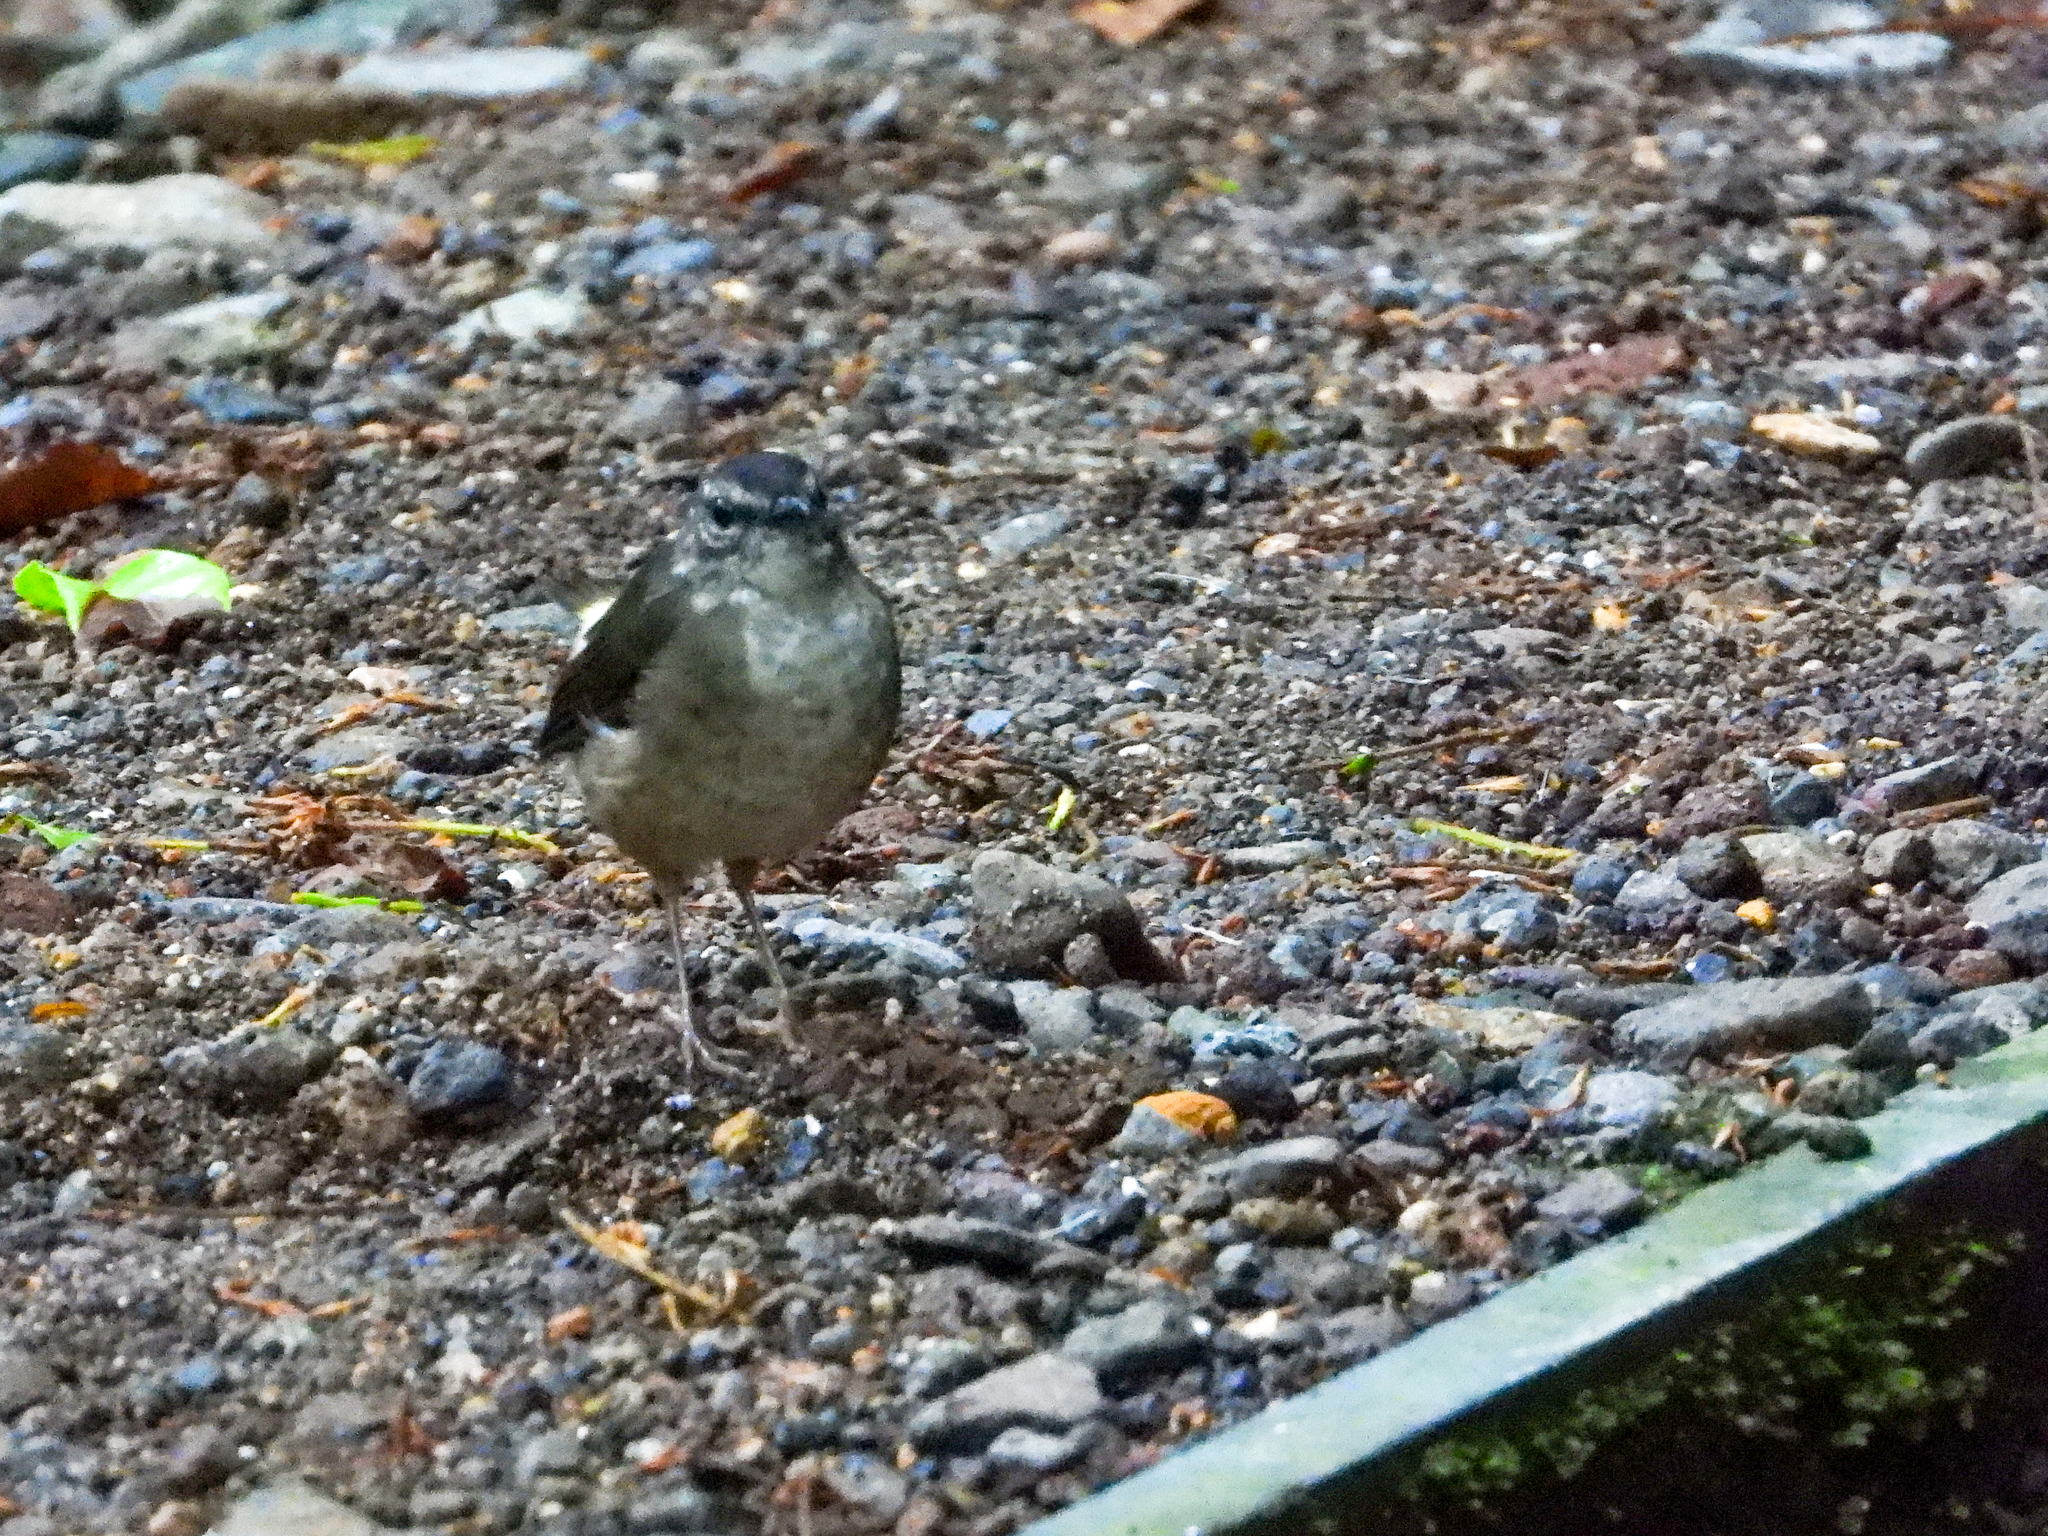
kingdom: Animalia
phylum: Chordata
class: Aves
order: Passeriformes
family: Parulidae
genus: Myiothlypis
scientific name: Myiothlypis fulvicauda
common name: Buff-rumped warbler
